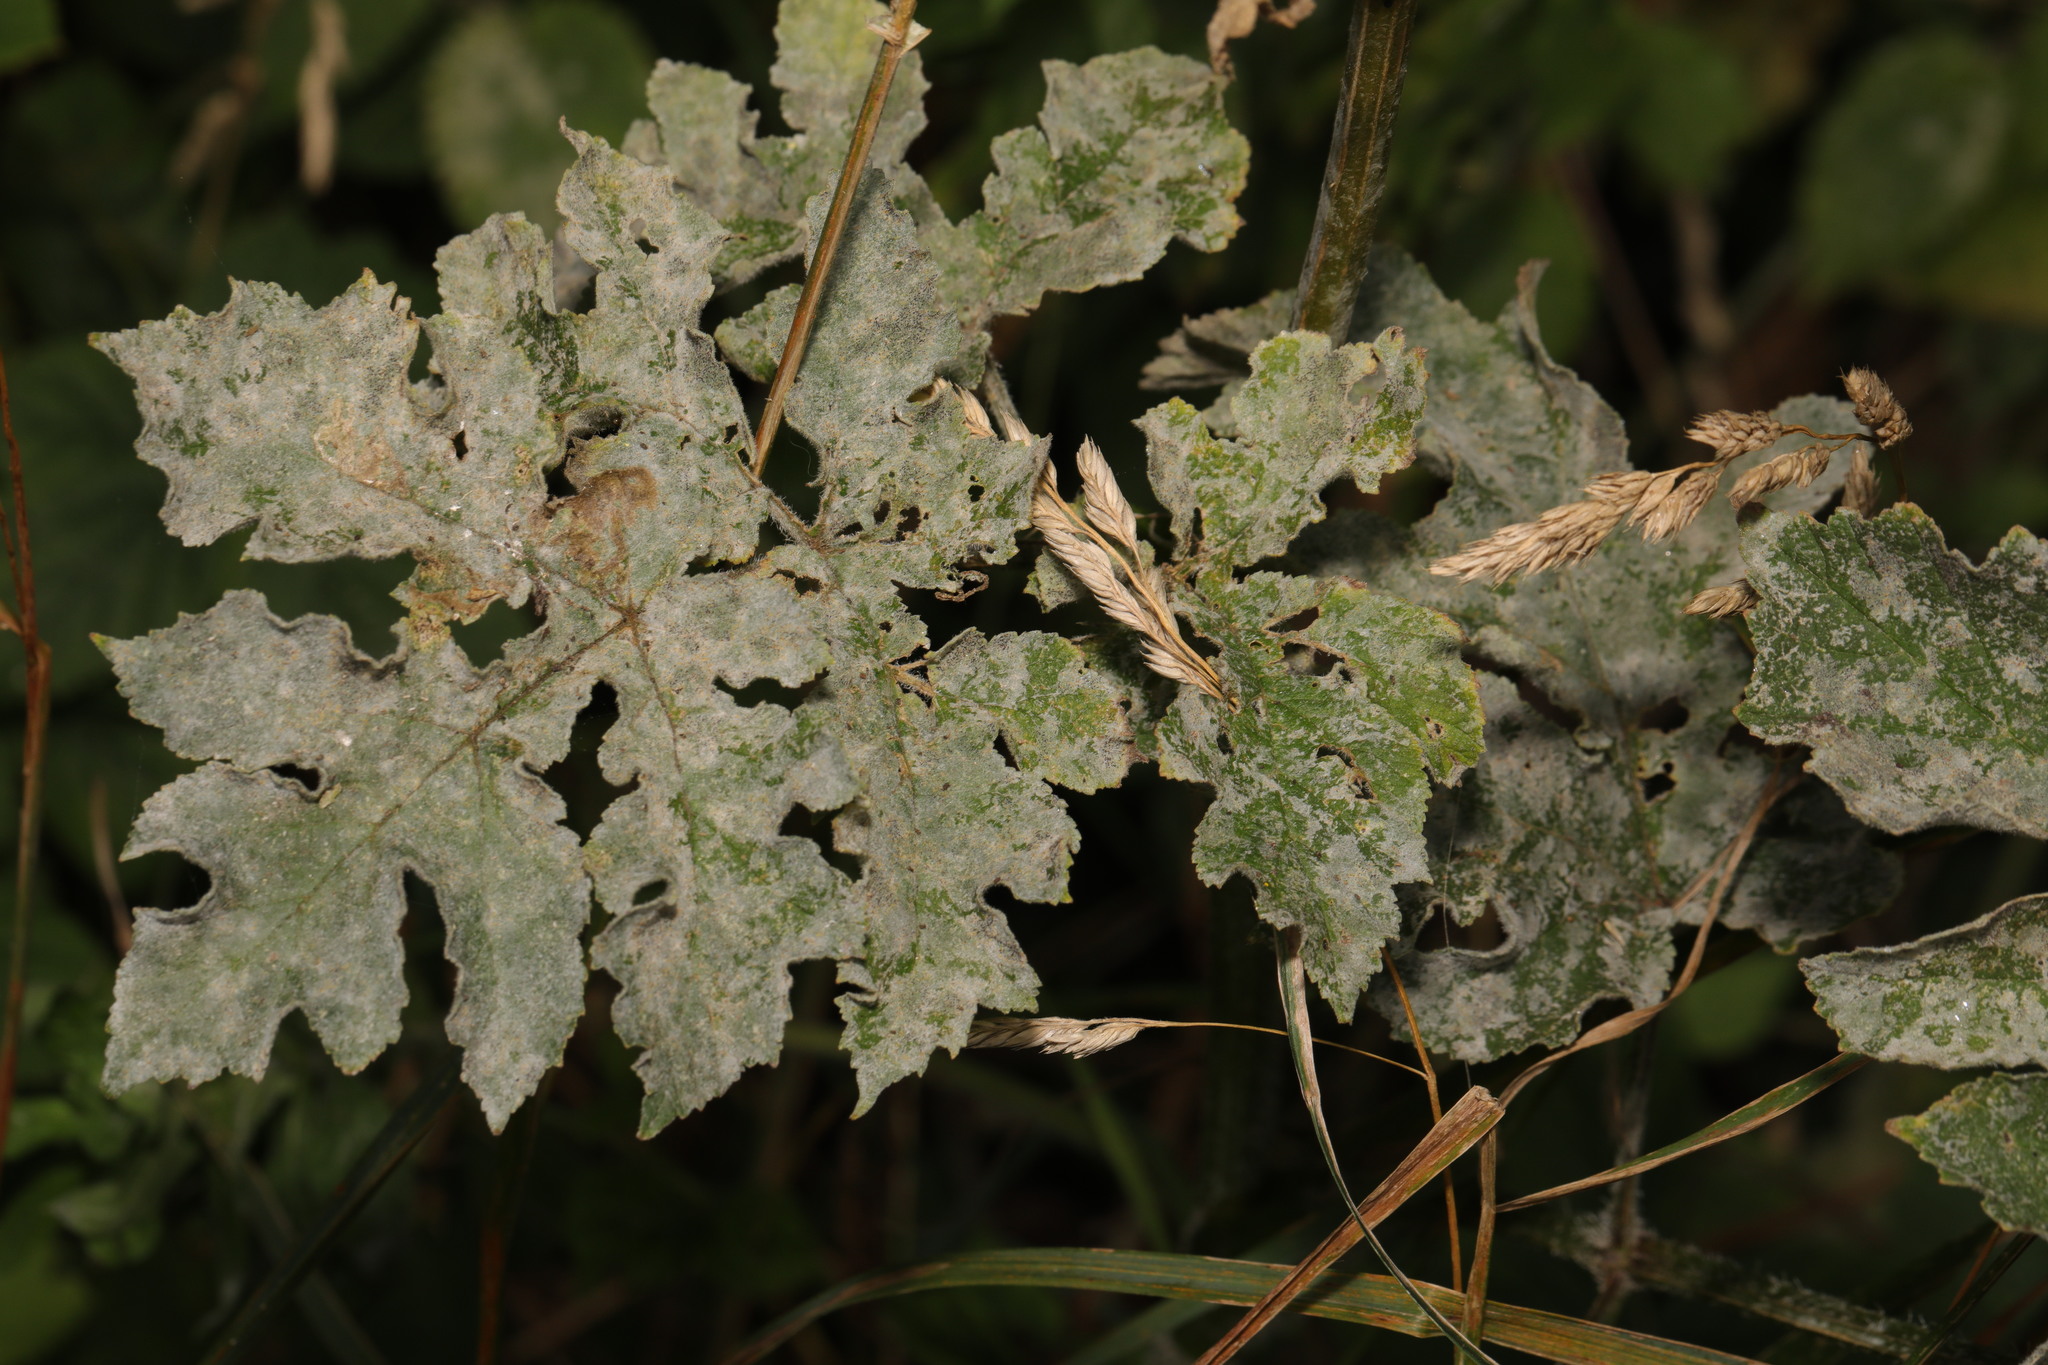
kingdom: Plantae
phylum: Tracheophyta
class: Magnoliopsida
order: Apiales
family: Apiaceae
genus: Heracleum
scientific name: Heracleum sphondylium
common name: Hogweed
